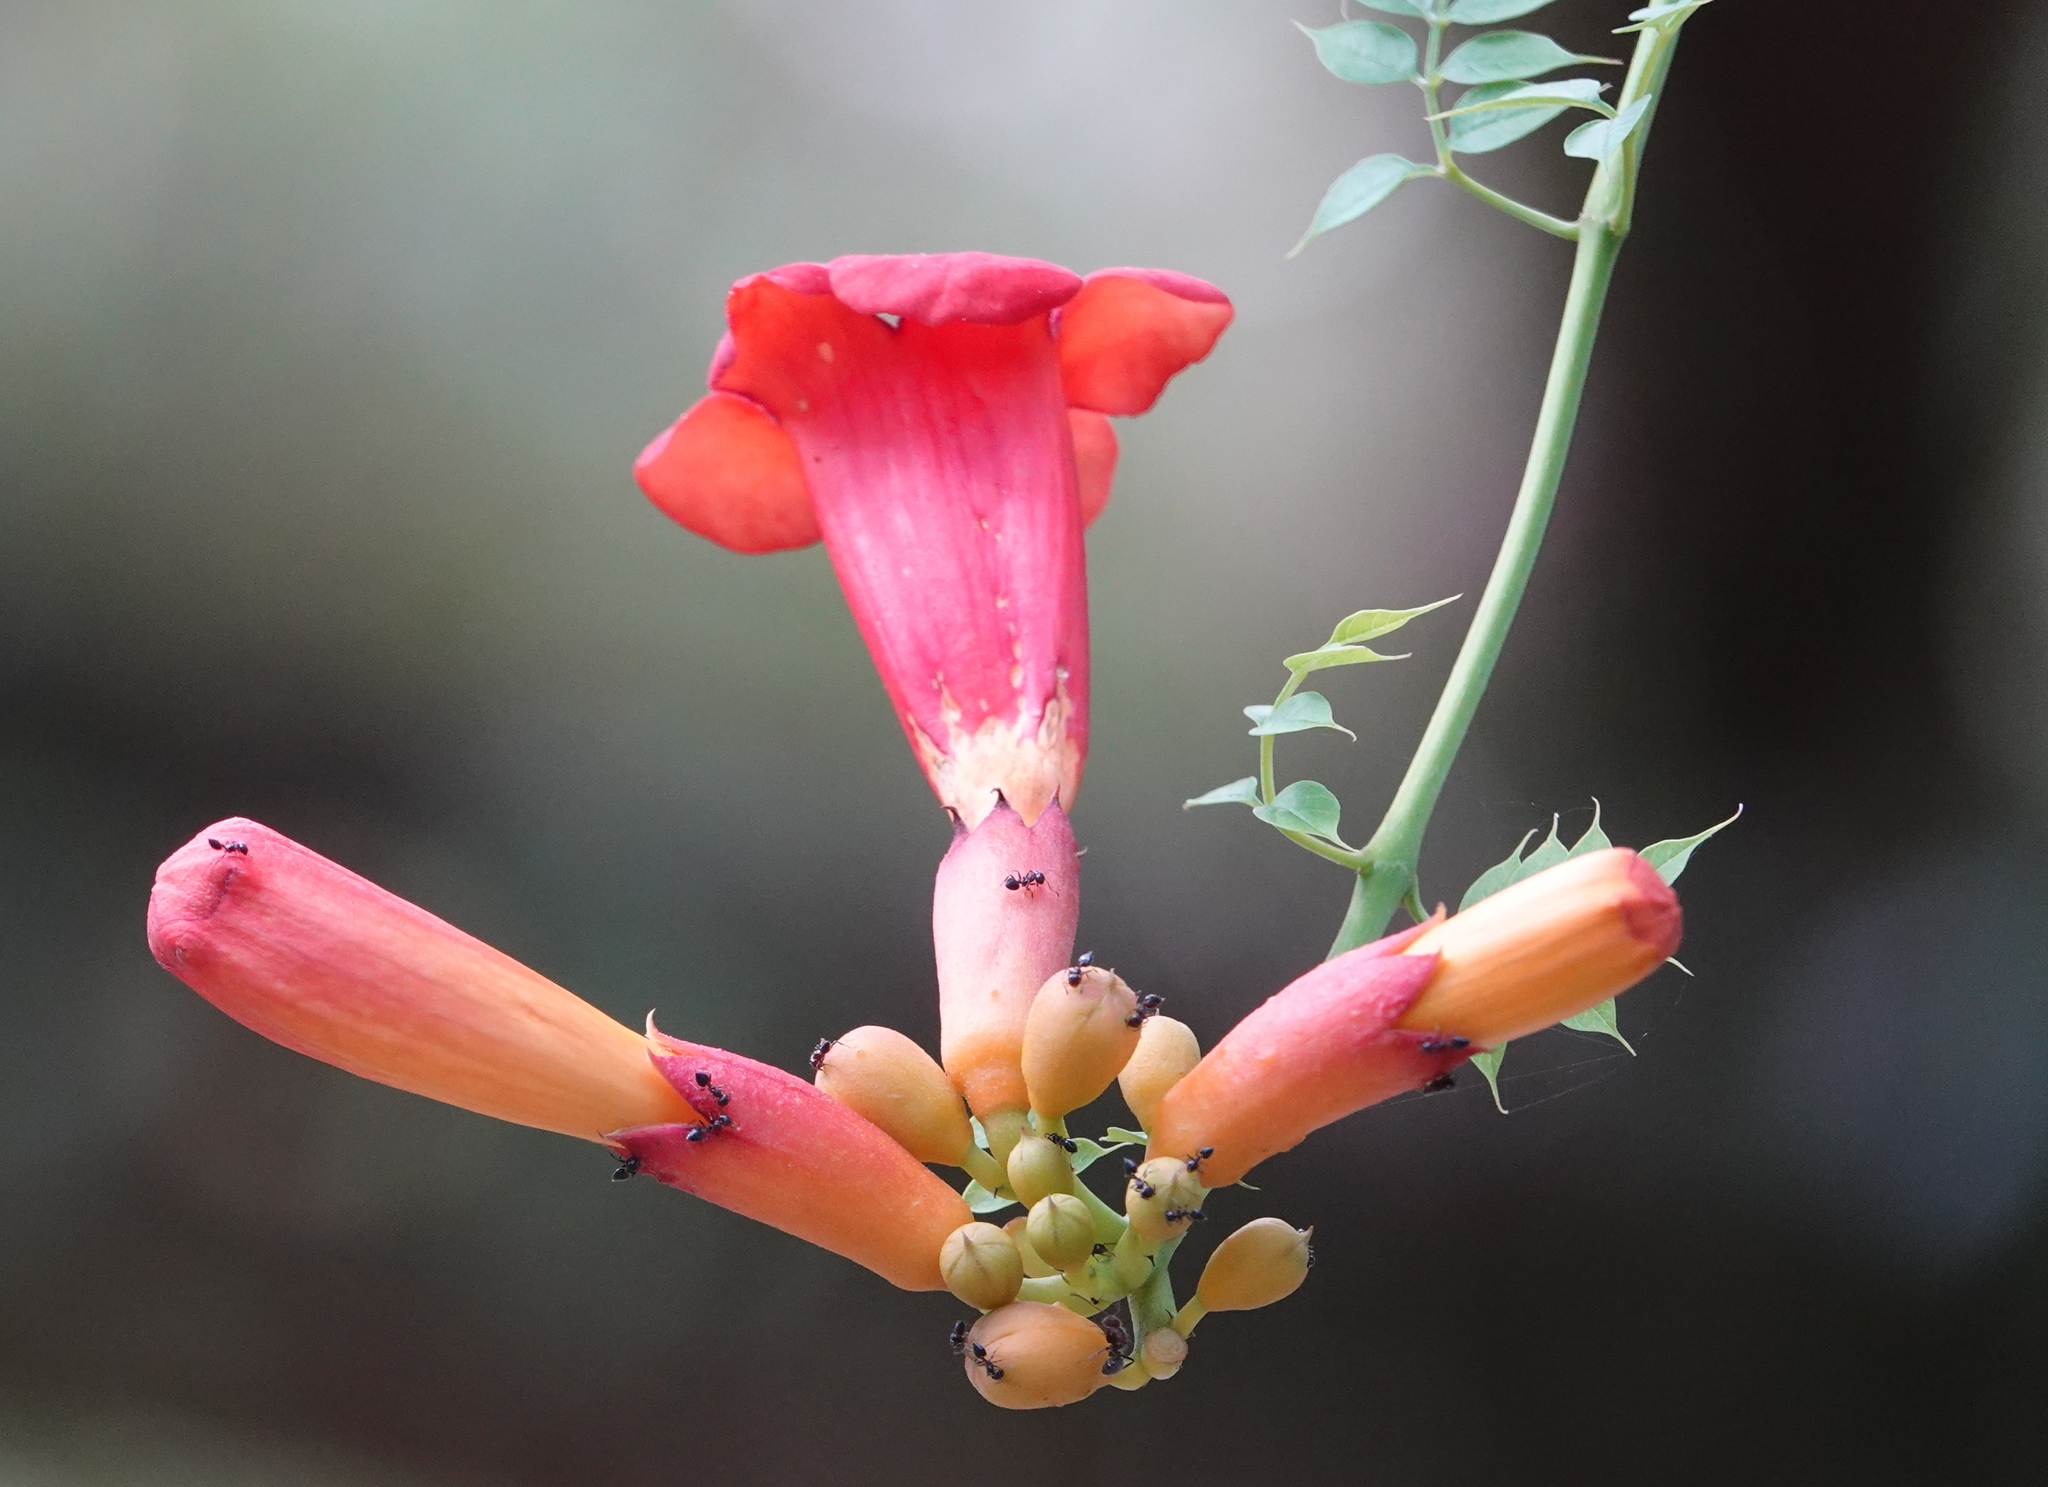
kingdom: Plantae
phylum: Tracheophyta
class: Magnoliopsida
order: Lamiales
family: Bignoniaceae
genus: Campsis
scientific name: Campsis radicans
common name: Trumpet-creeper
